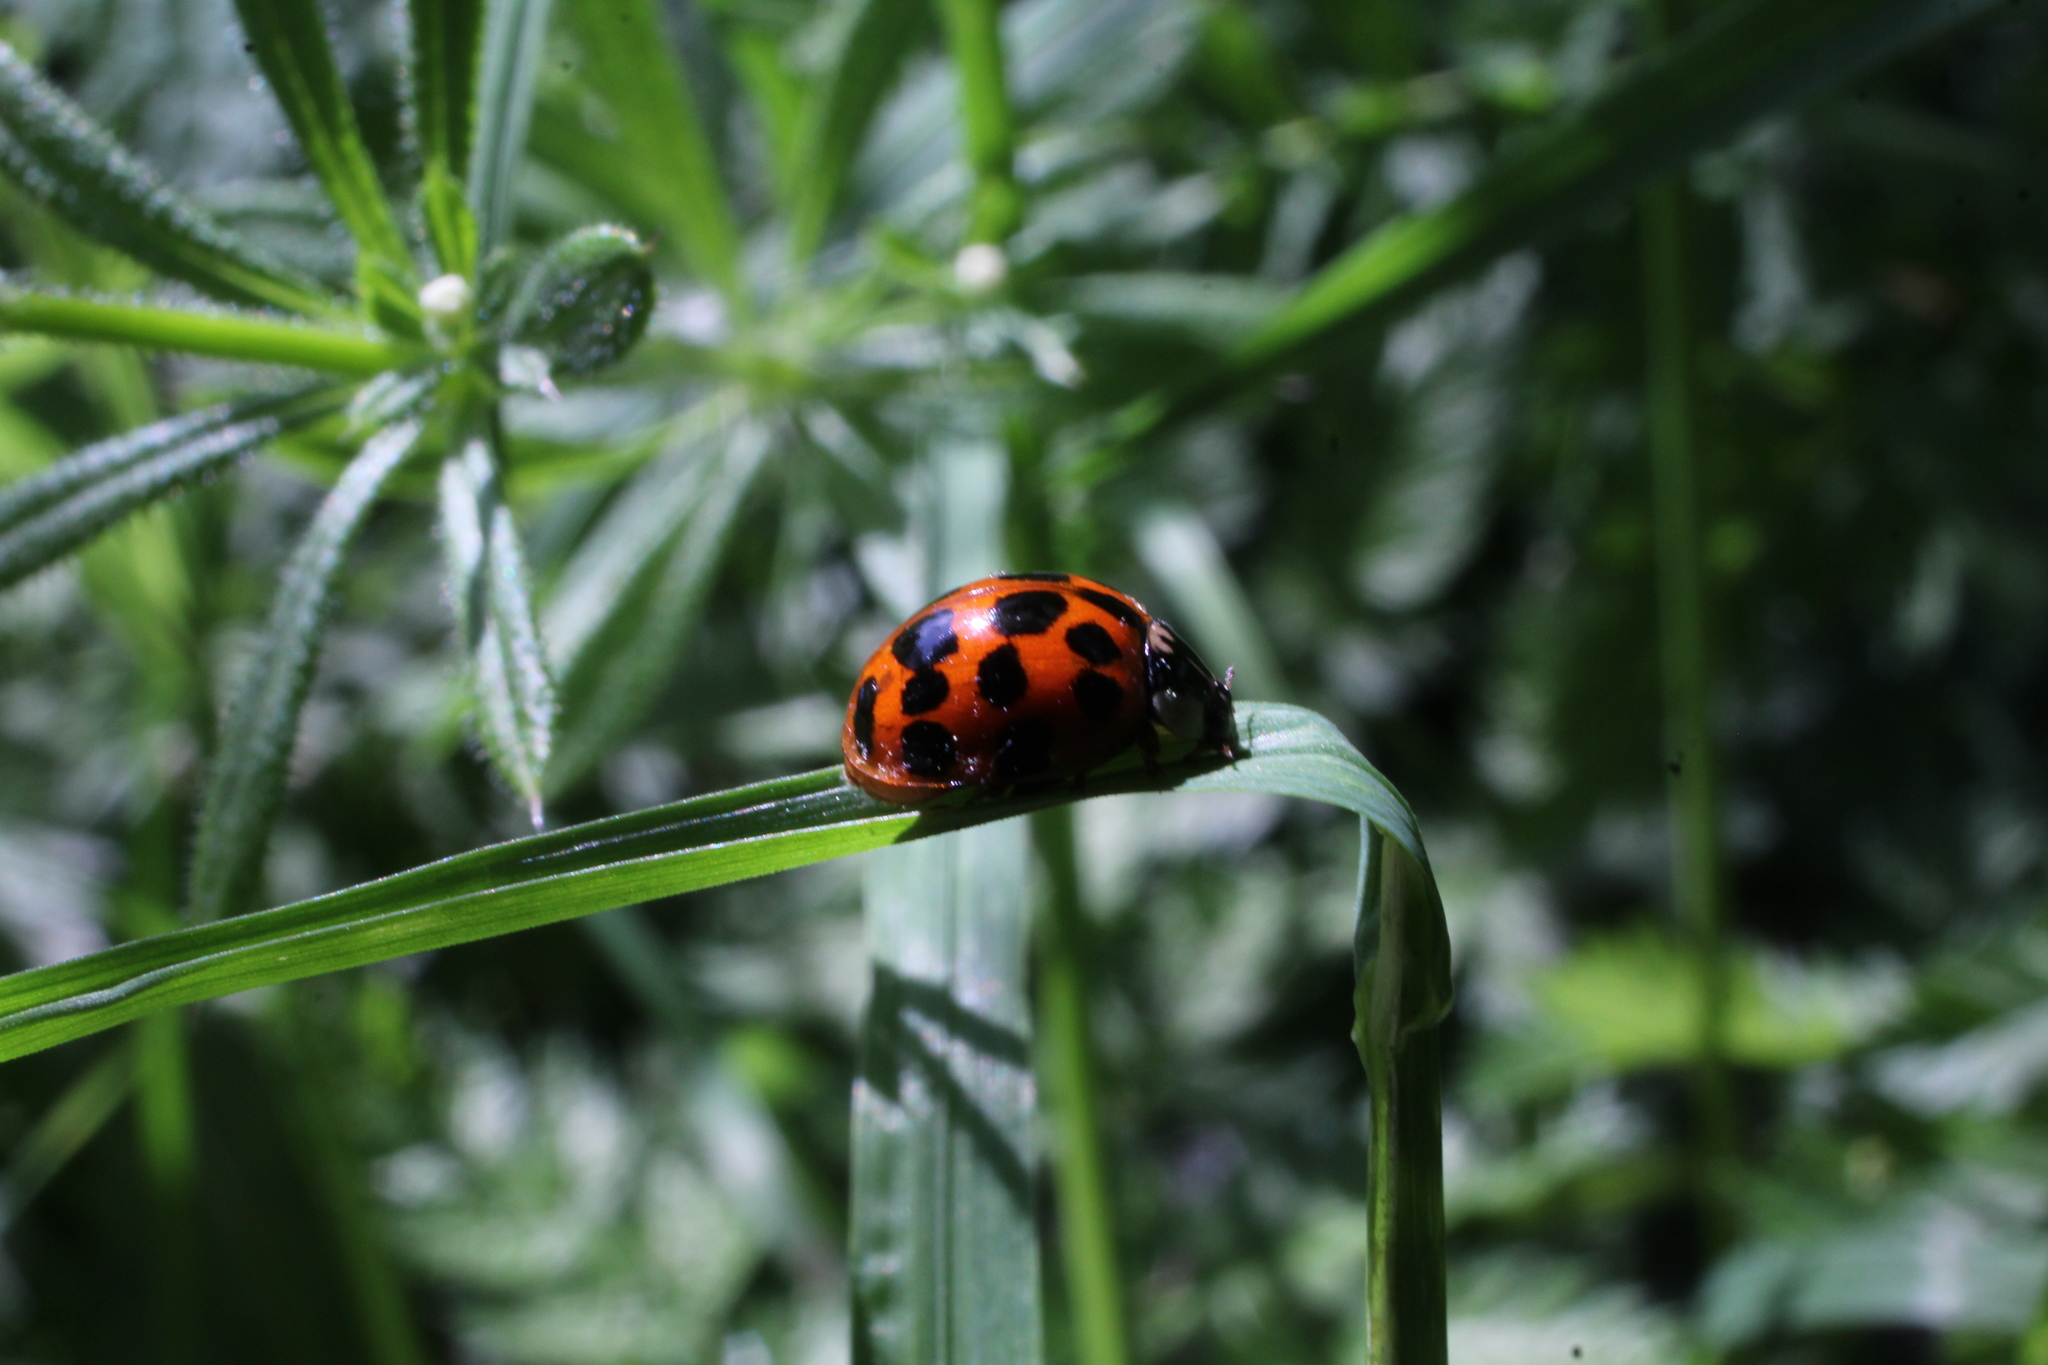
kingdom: Animalia
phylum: Arthropoda
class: Insecta
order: Coleoptera
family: Coccinellidae
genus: Harmonia
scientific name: Harmonia axyridis
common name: Harlequin ladybird
